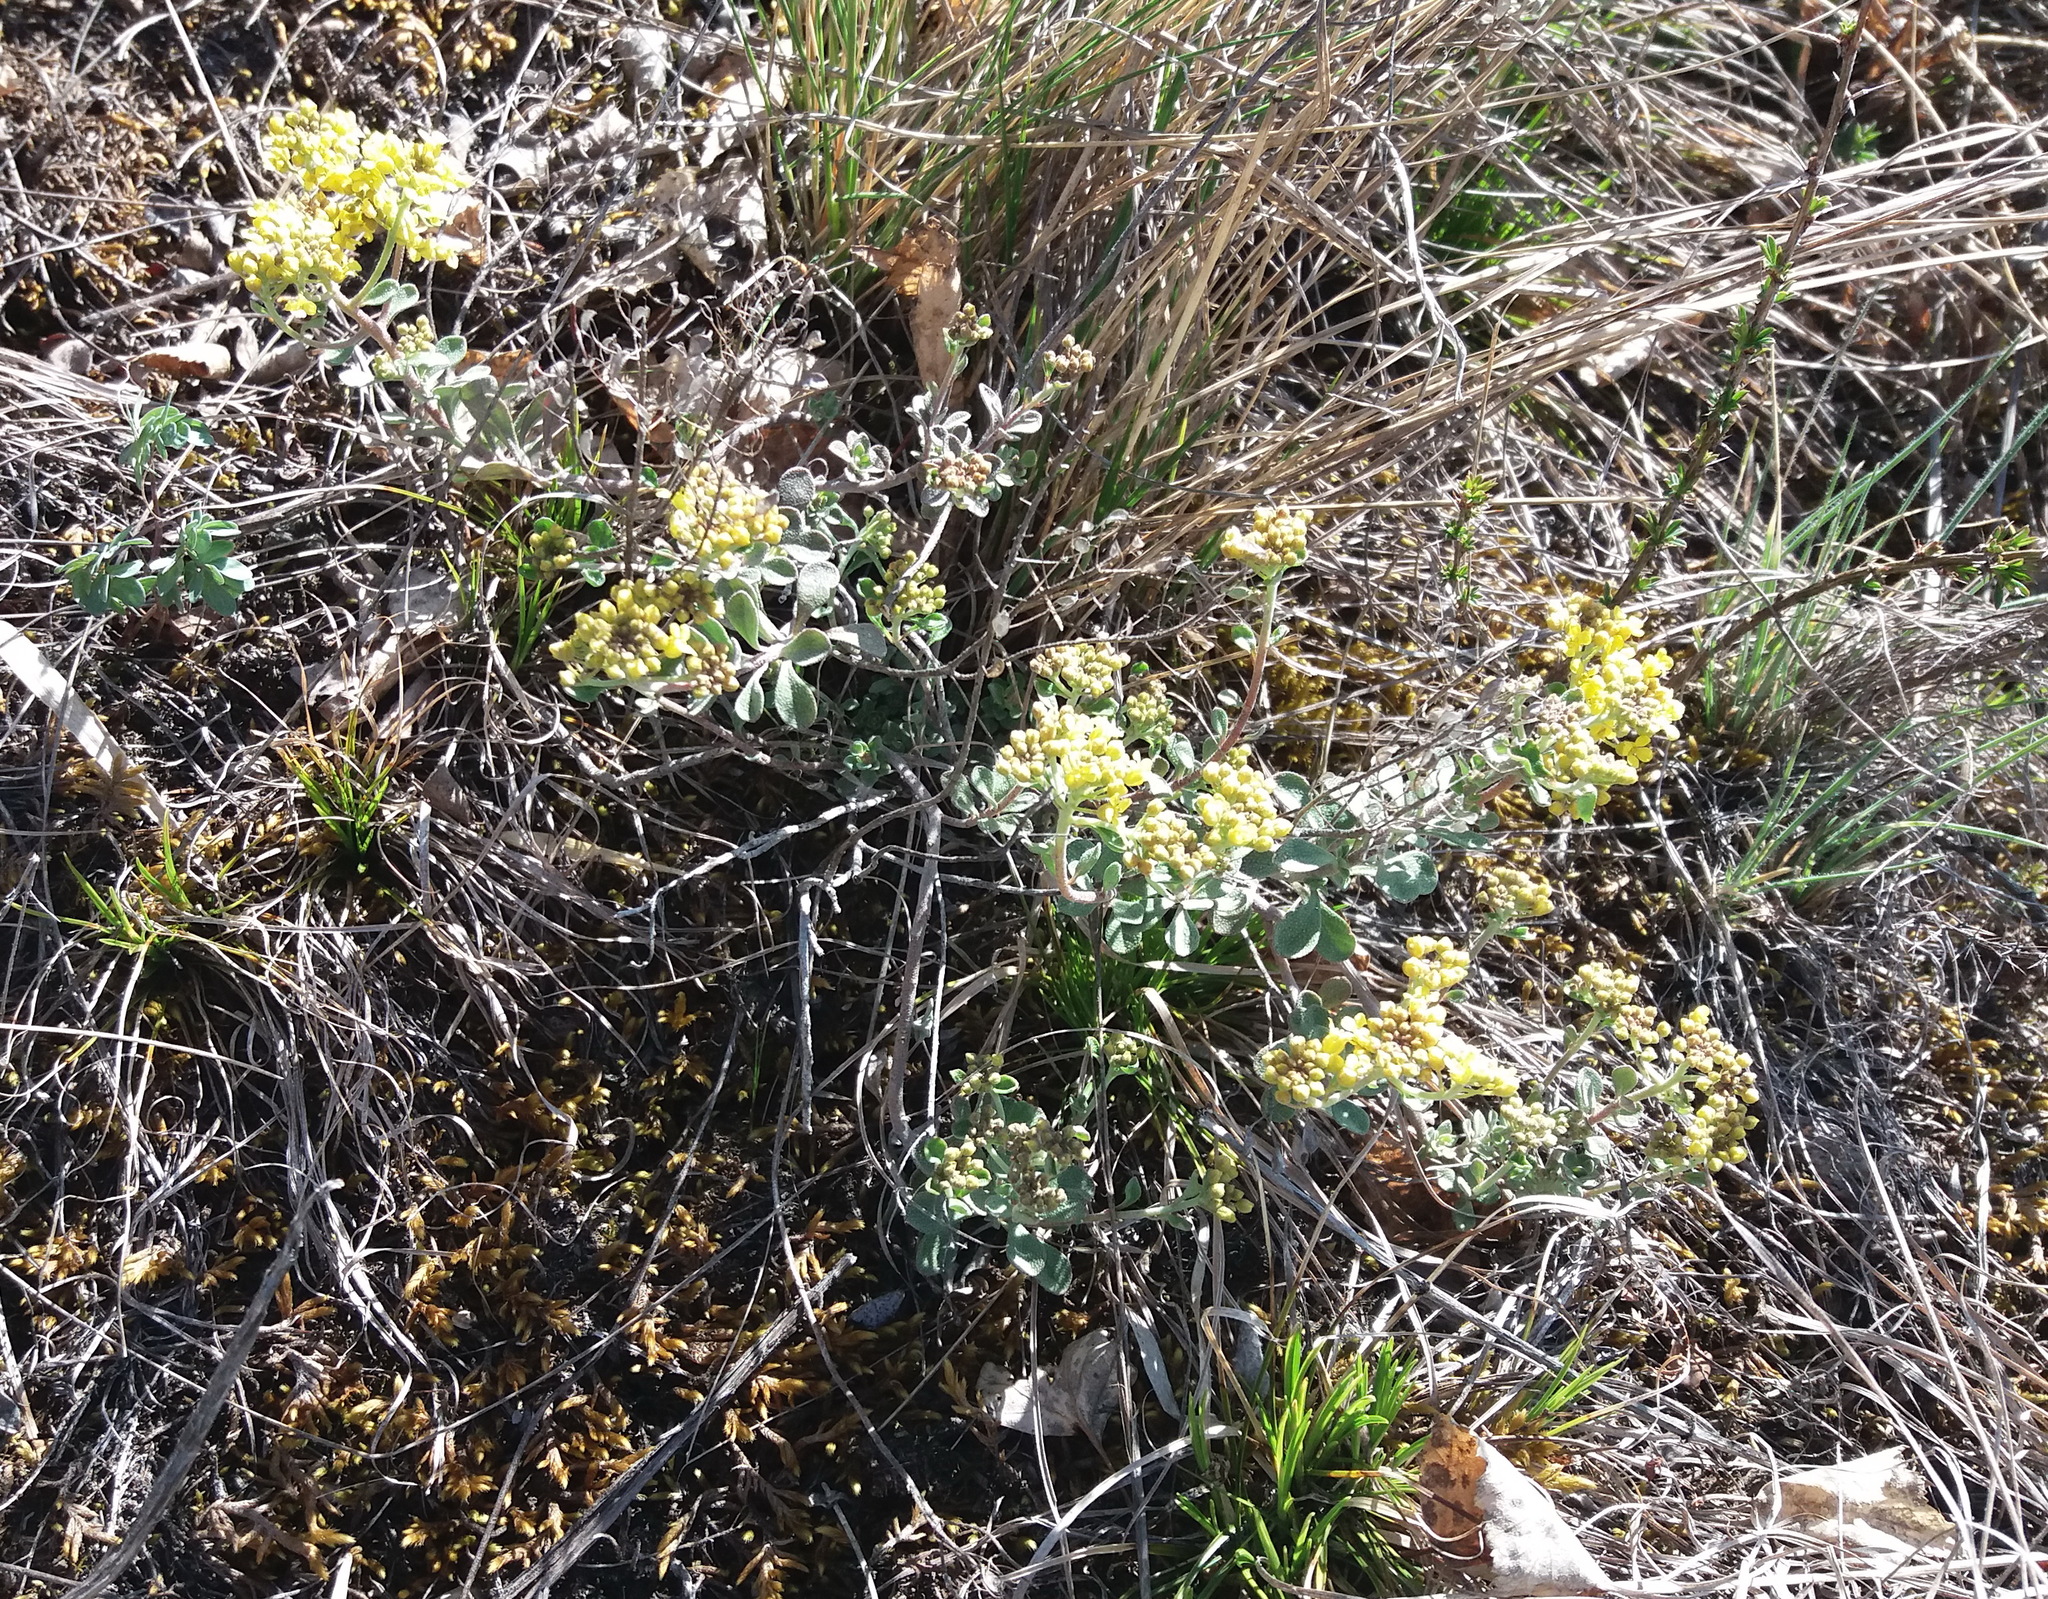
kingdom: Plantae
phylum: Tracheophyta
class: Magnoliopsida
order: Brassicales
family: Brassicaceae
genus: Odontarrhena
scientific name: Odontarrhena obovata
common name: American alyssum
